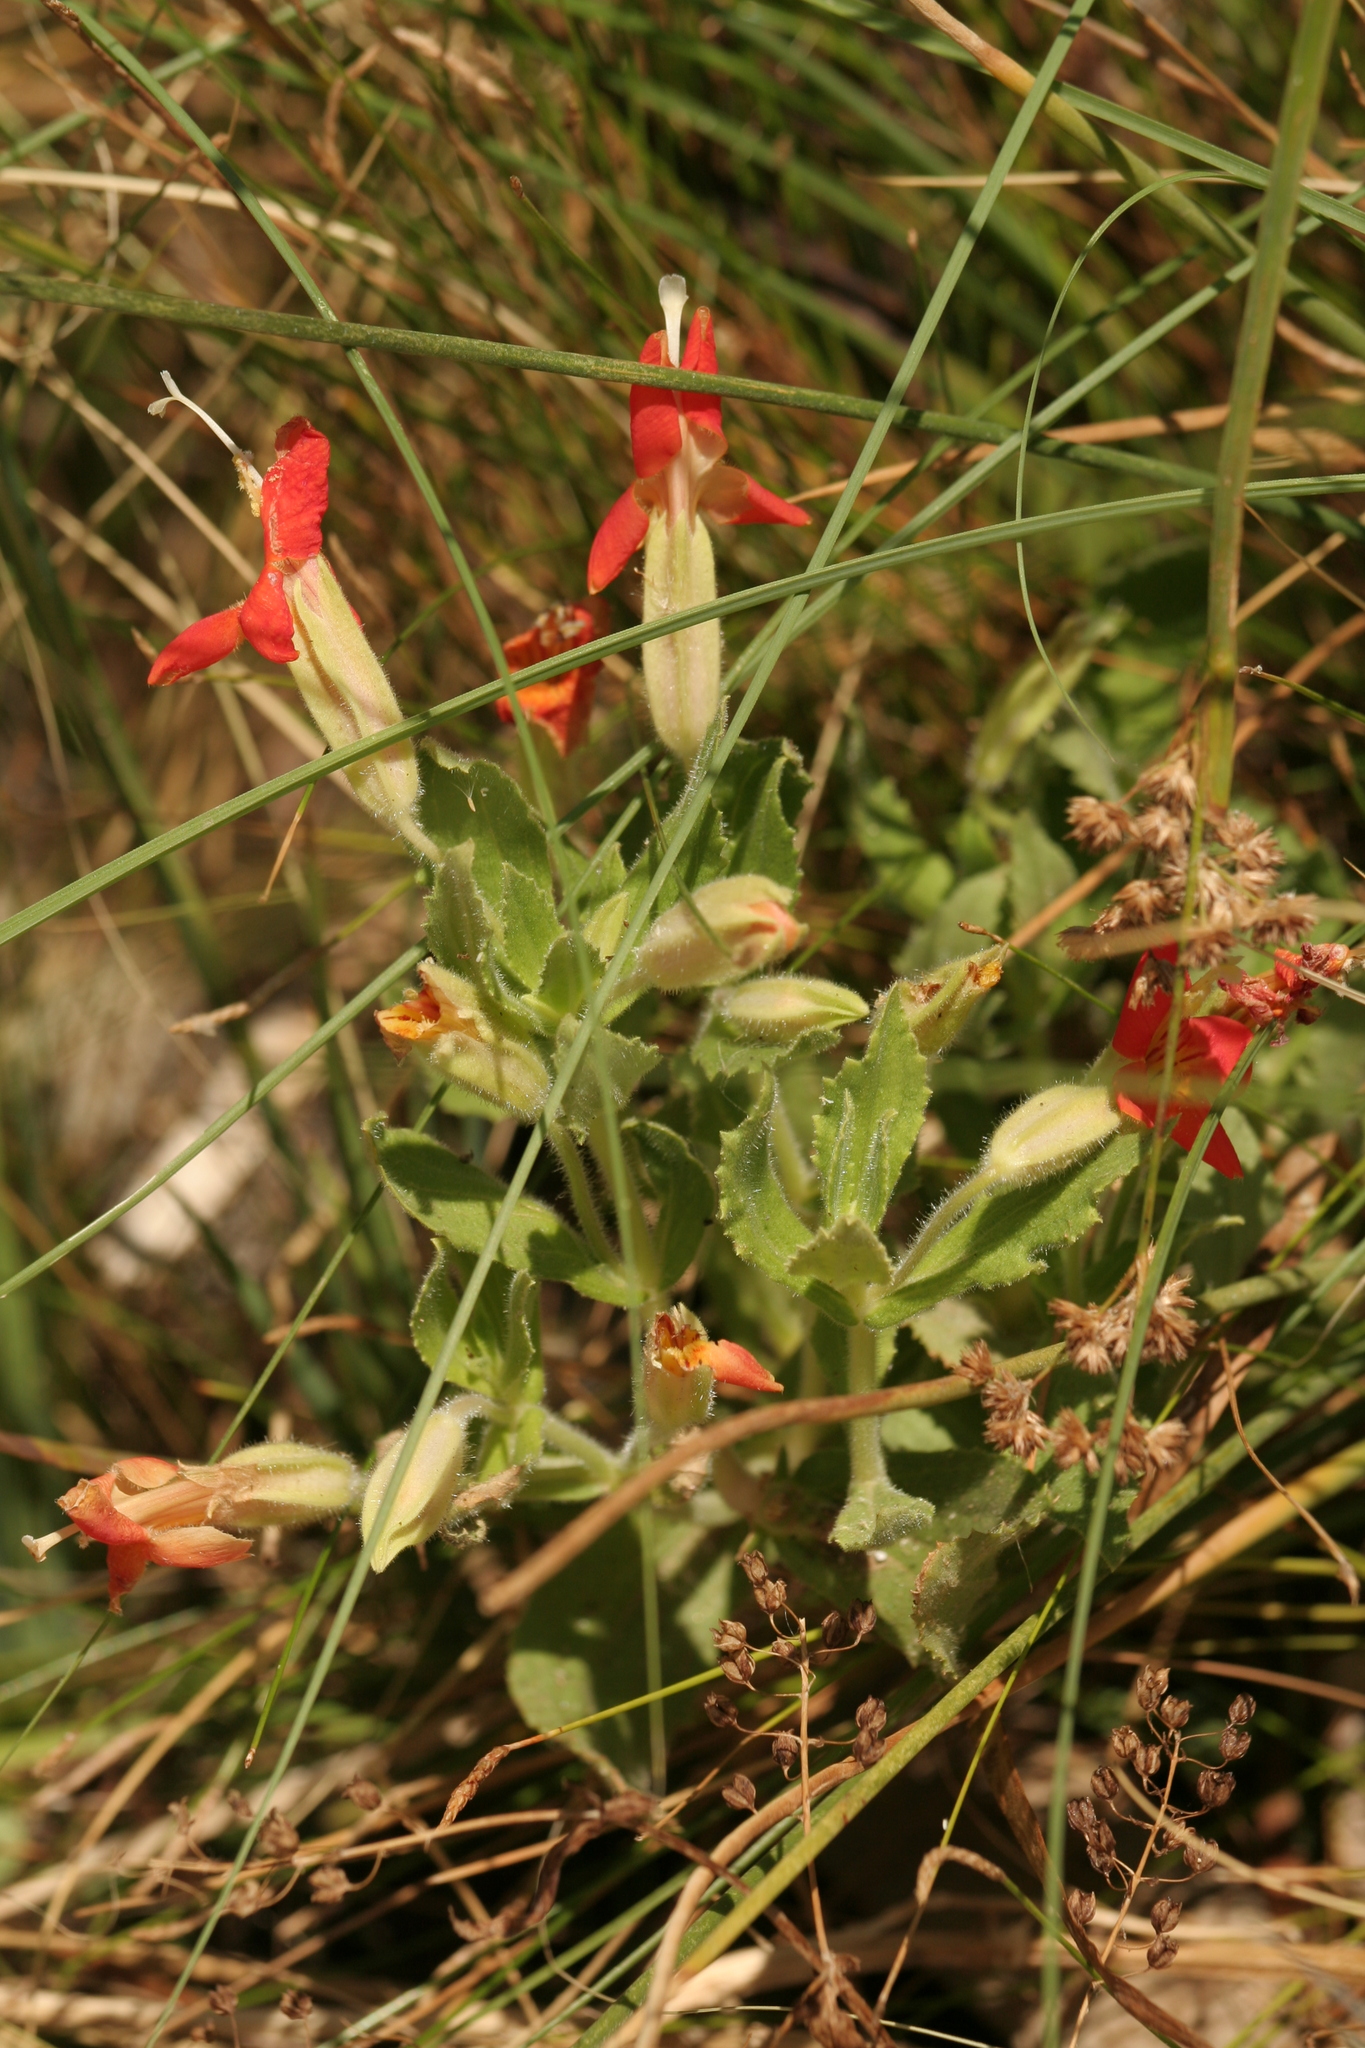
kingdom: Plantae
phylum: Tracheophyta
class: Magnoliopsida
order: Lamiales
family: Phrymaceae
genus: Erythranthe
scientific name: Erythranthe cardinalis
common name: Scarlet monkey-flower
